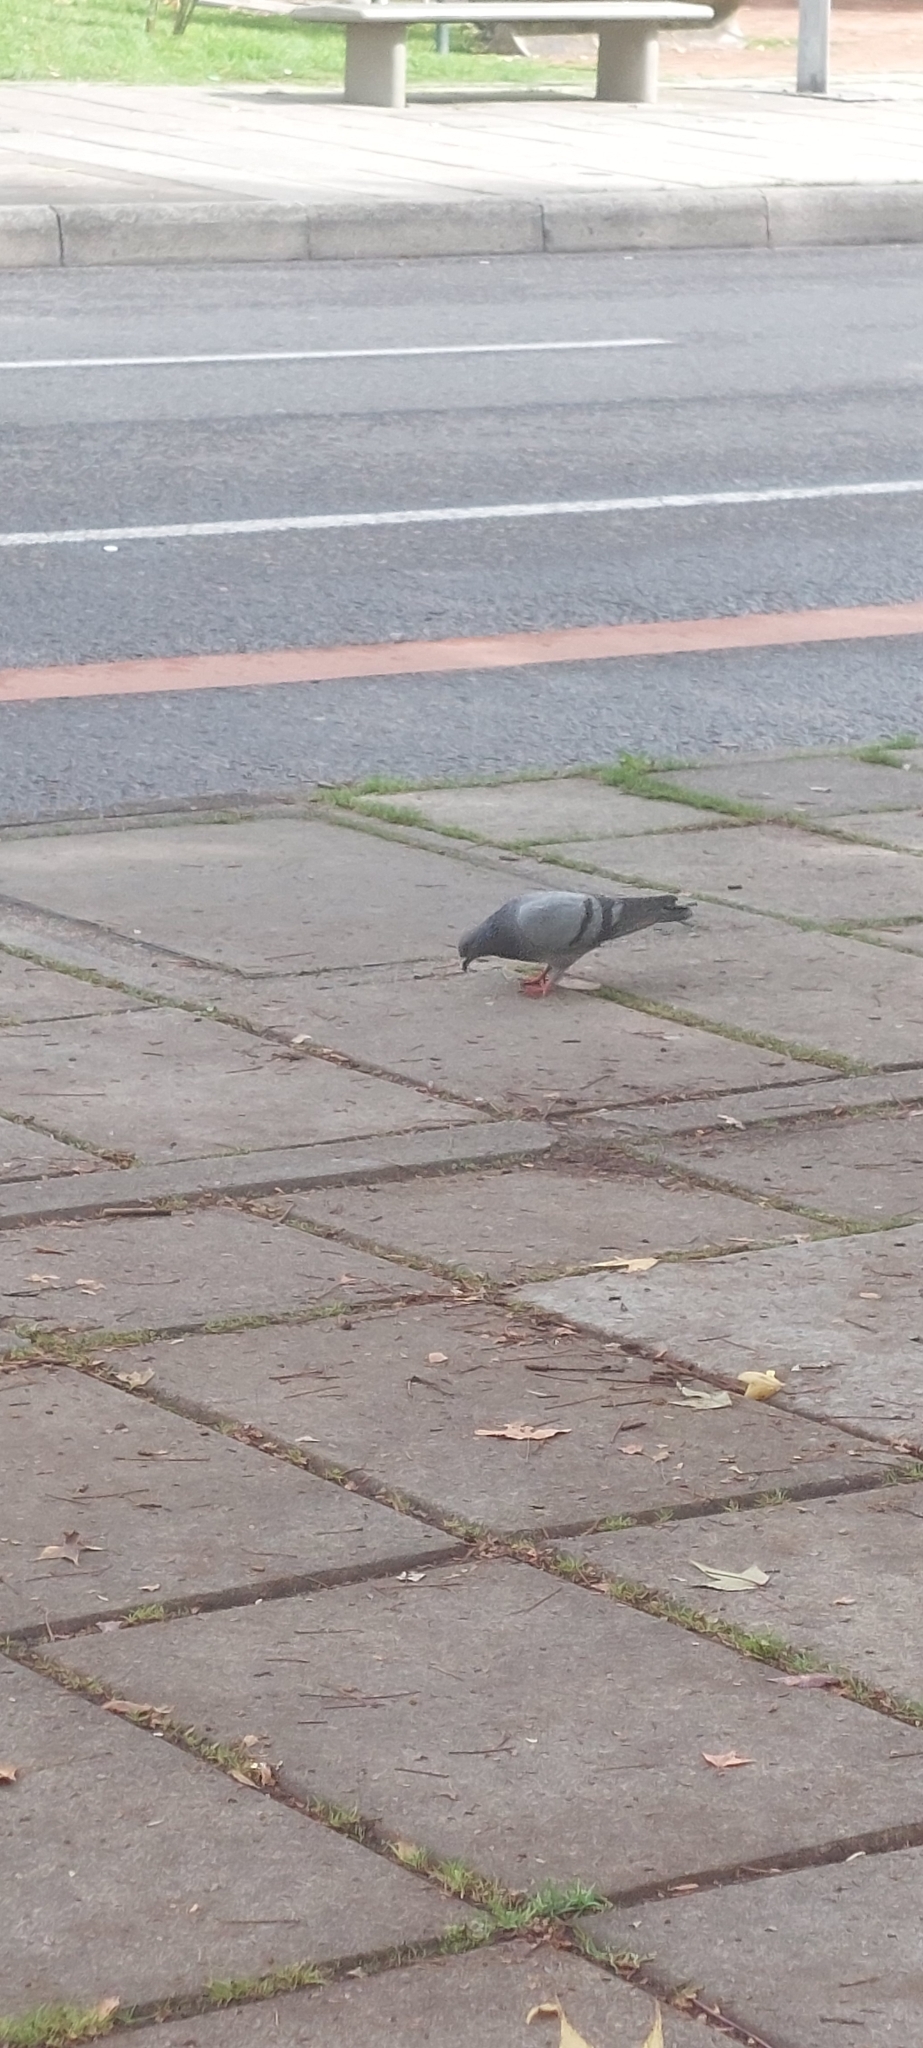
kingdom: Animalia
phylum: Chordata
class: Aves
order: Columbiformes
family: Columbidae
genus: Columba
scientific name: Columba livia
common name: Rock pigeon
